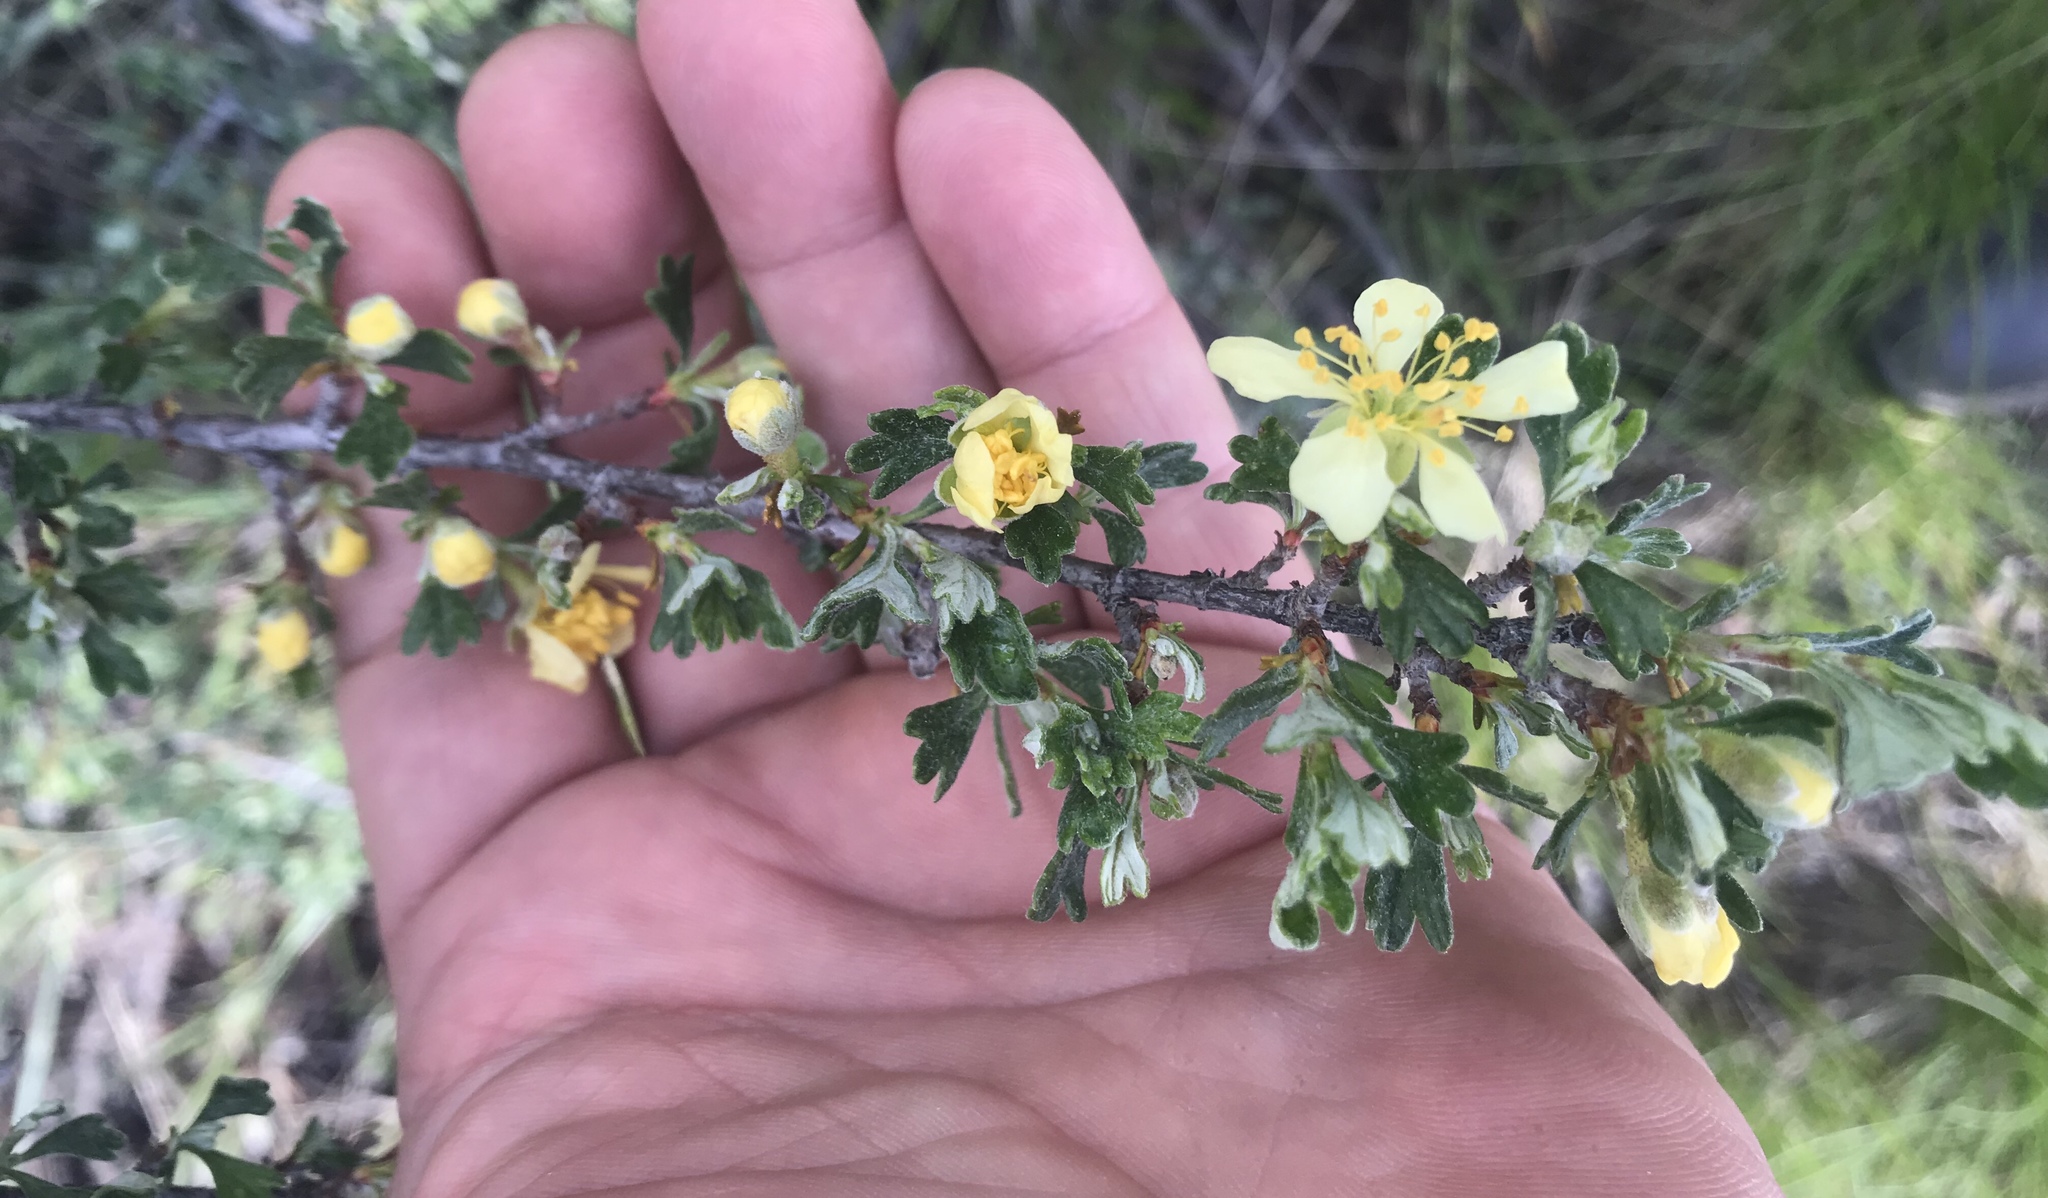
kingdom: Plantae
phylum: Tracheophyta
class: Magnoliopsida
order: Rosales
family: Rosaceae
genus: Purshia
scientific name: Purshia tridentata
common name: Antelope bitterbrush
